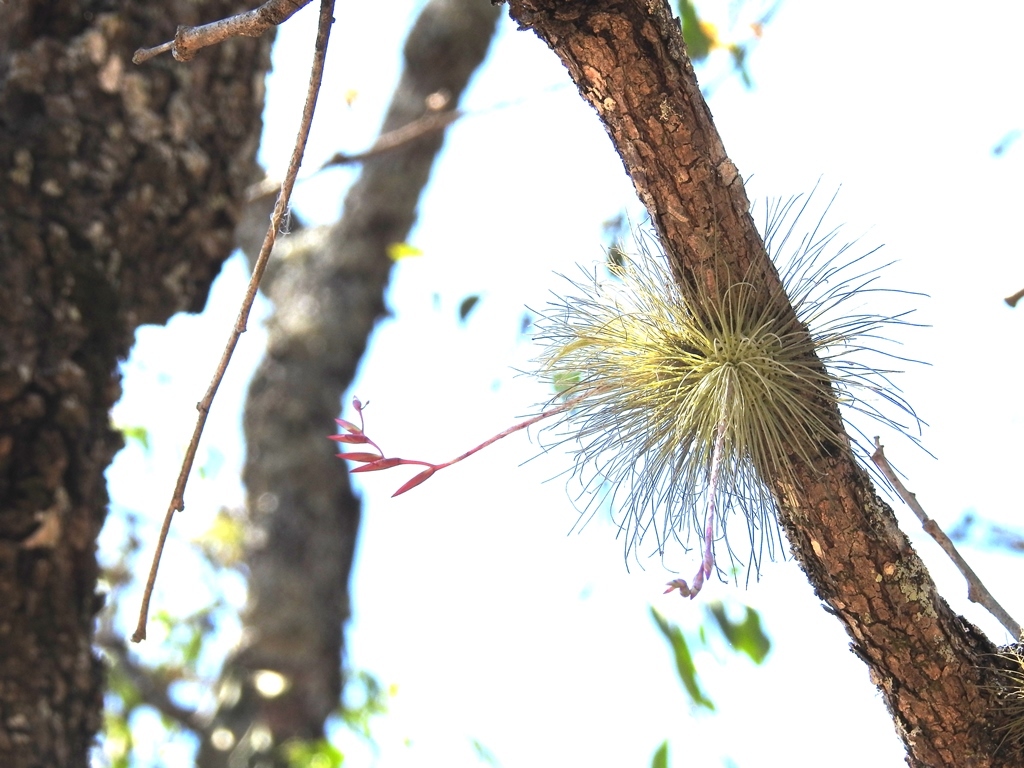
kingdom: Plantae
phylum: Tracheophyta
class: Liliopsida
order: Poales
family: Bromeliaceae
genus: Tillandsia
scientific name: Tillandsia fuchsii
